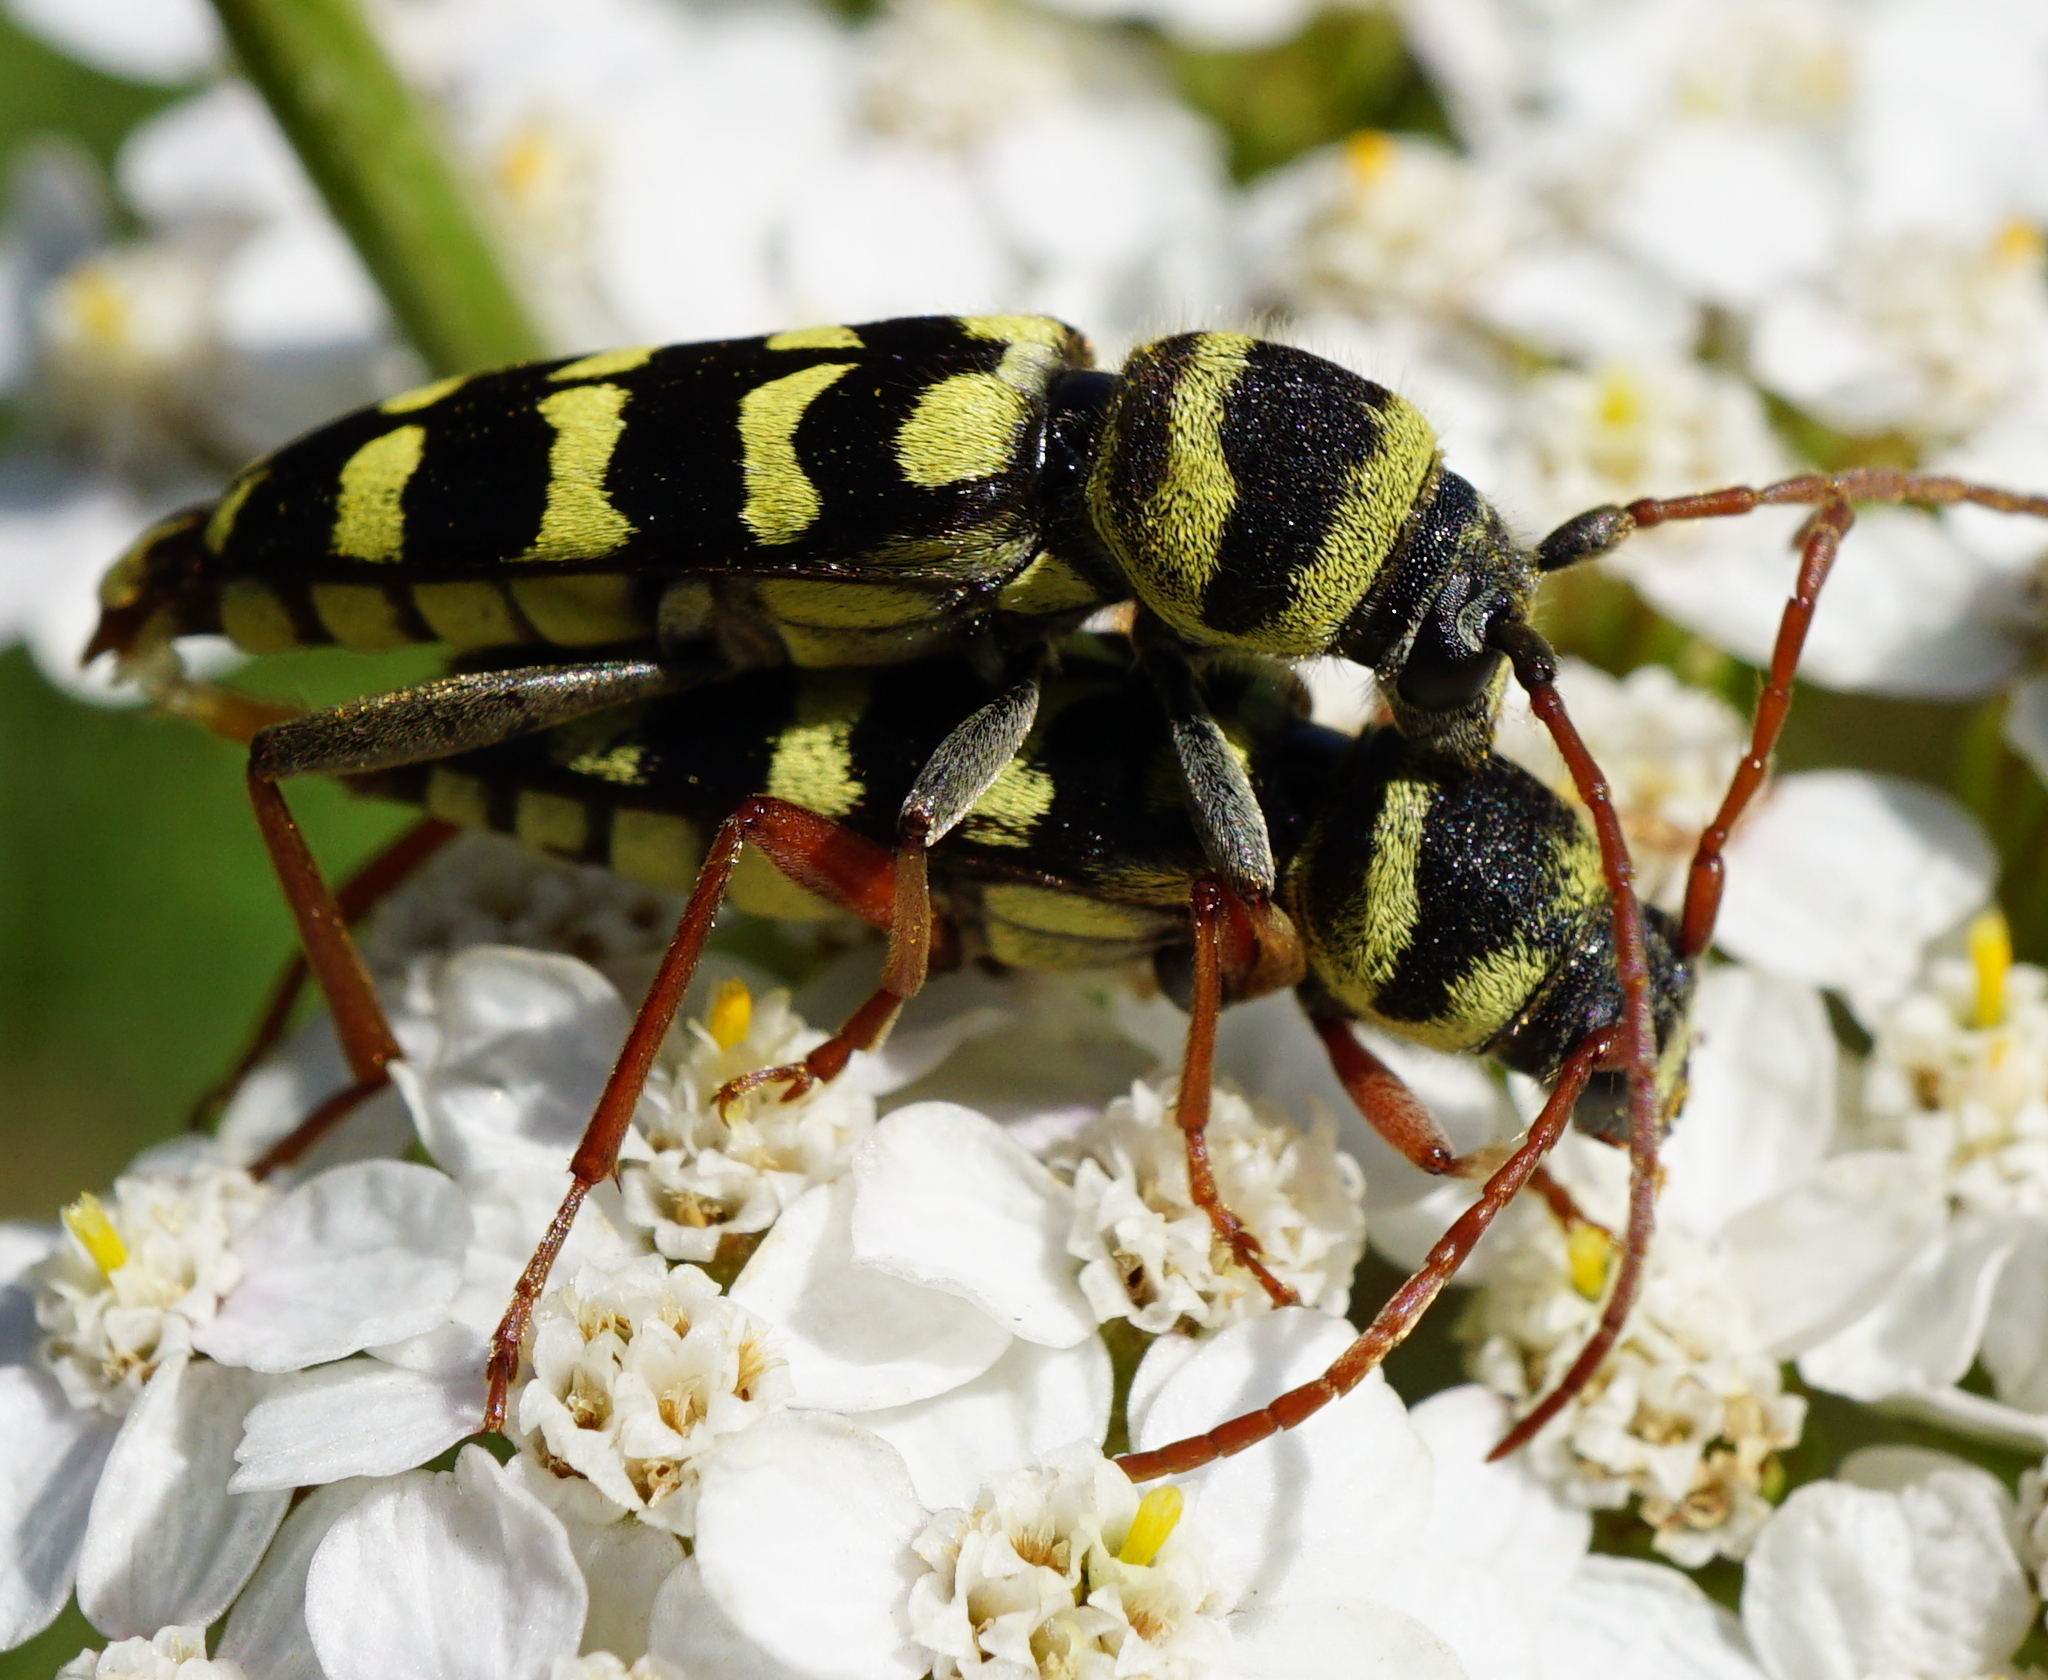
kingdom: Animalia
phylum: Arthropoda
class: Insecta
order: Coleoptera
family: Cerambycidae
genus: Plagionotus
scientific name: Plagionotus floralis
